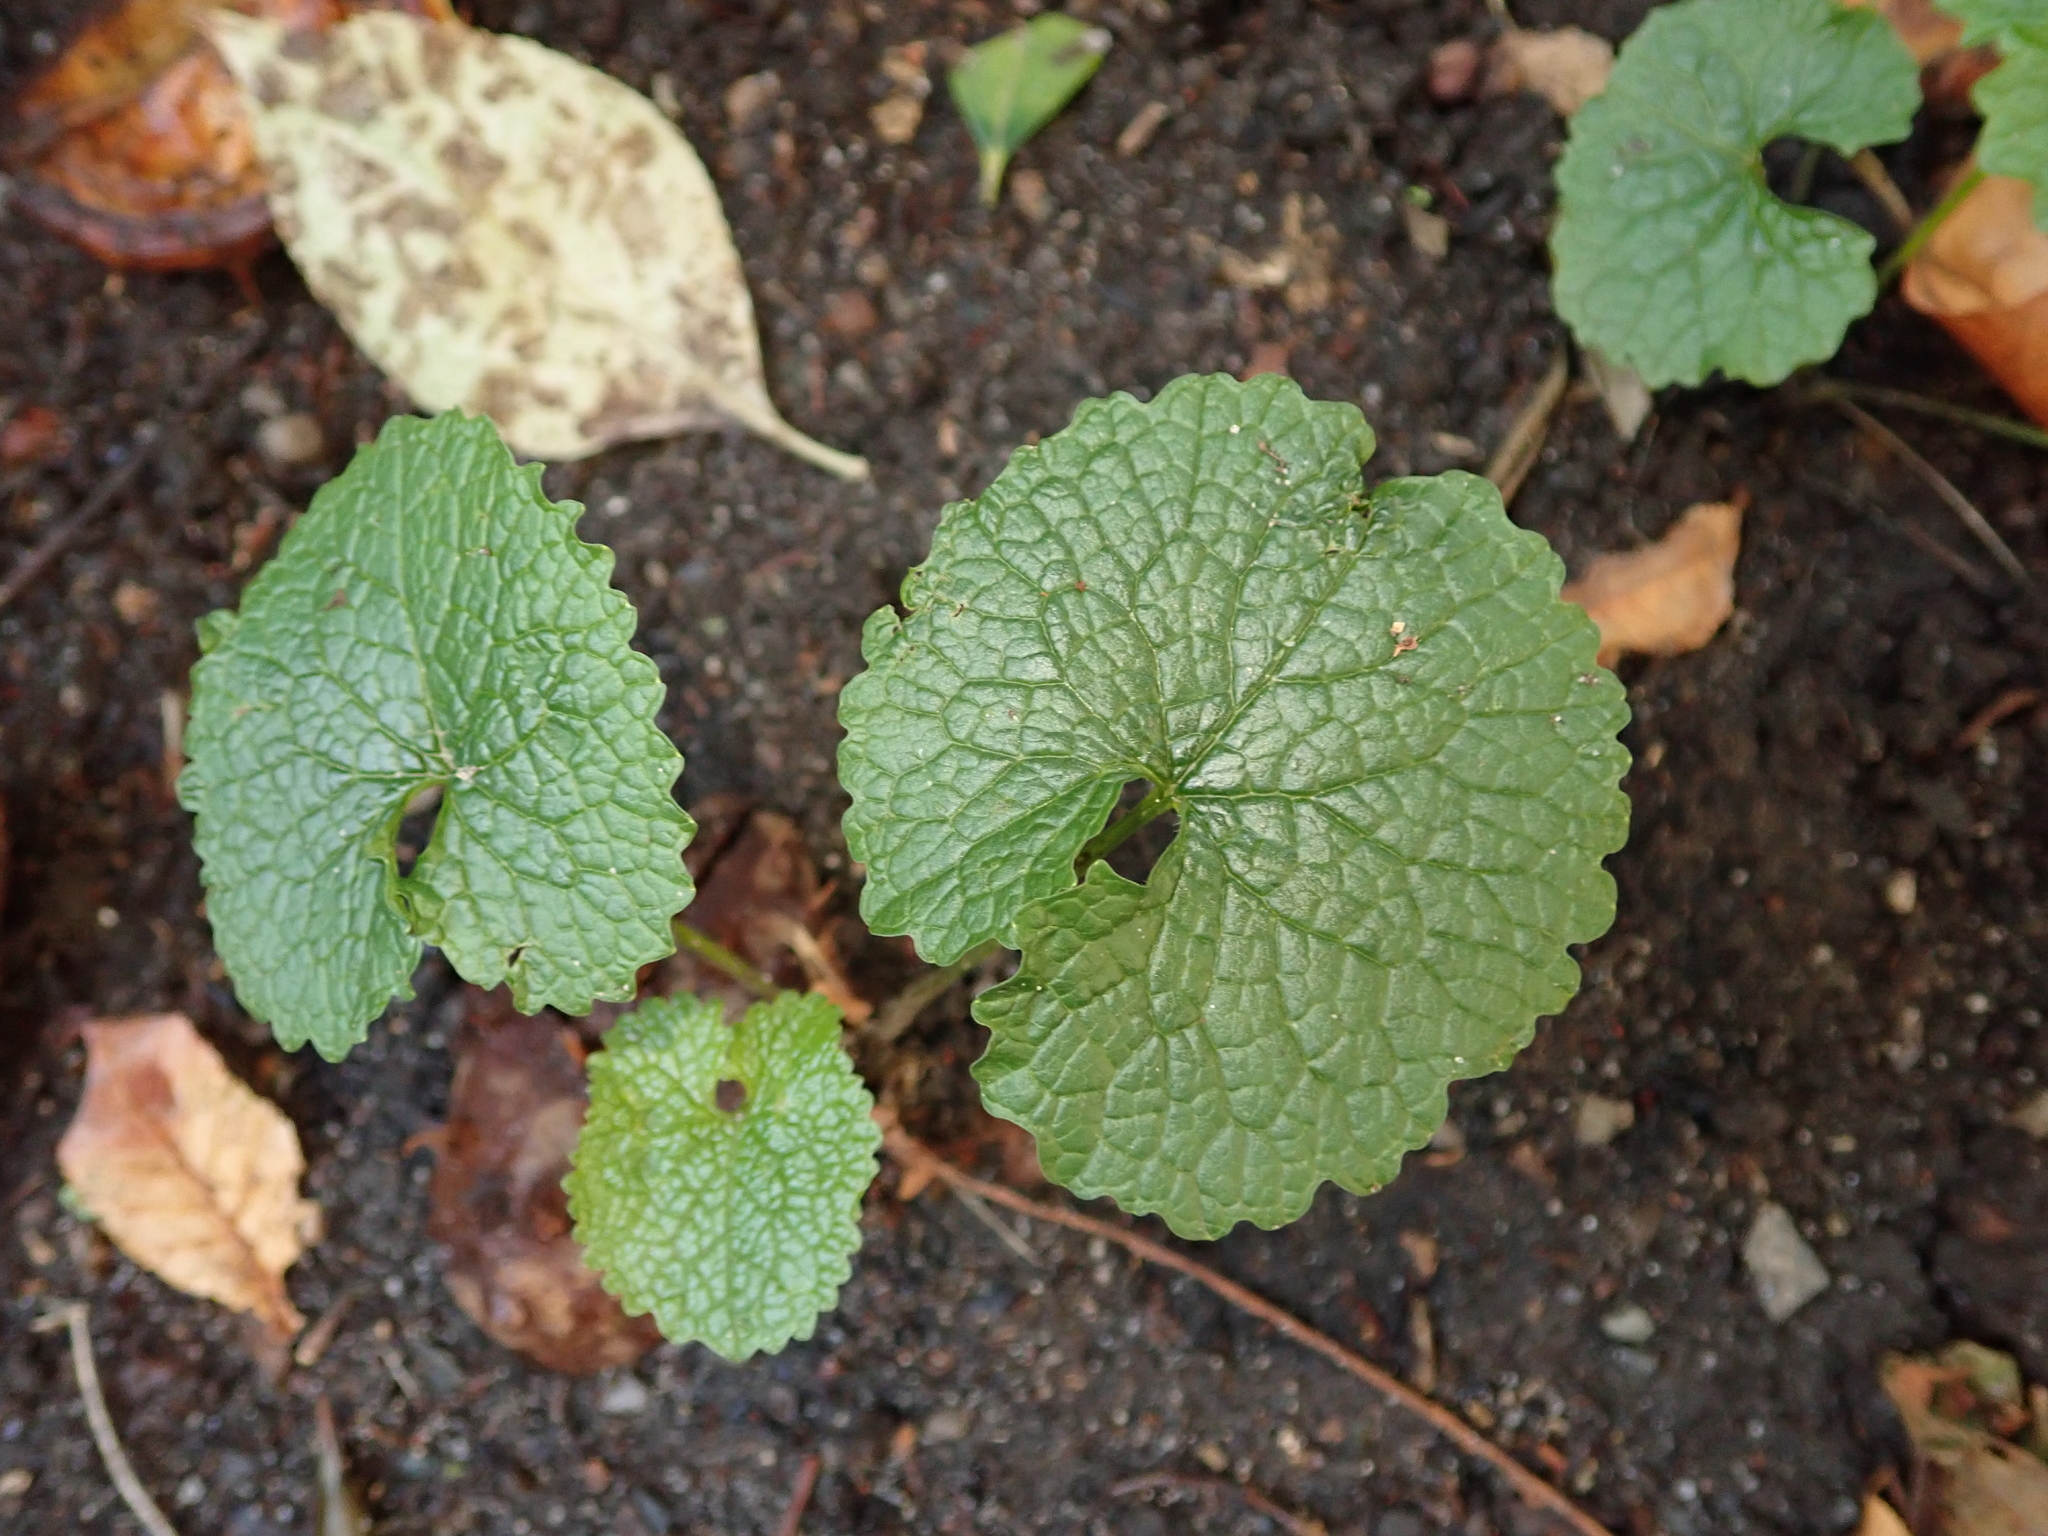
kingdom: Plantae
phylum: Tracheophyta
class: Magnoliopsida
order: Brassicales
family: Brassicaceae
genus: Alliaria
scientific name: Alliaria petiolata
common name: Garlic mustard
